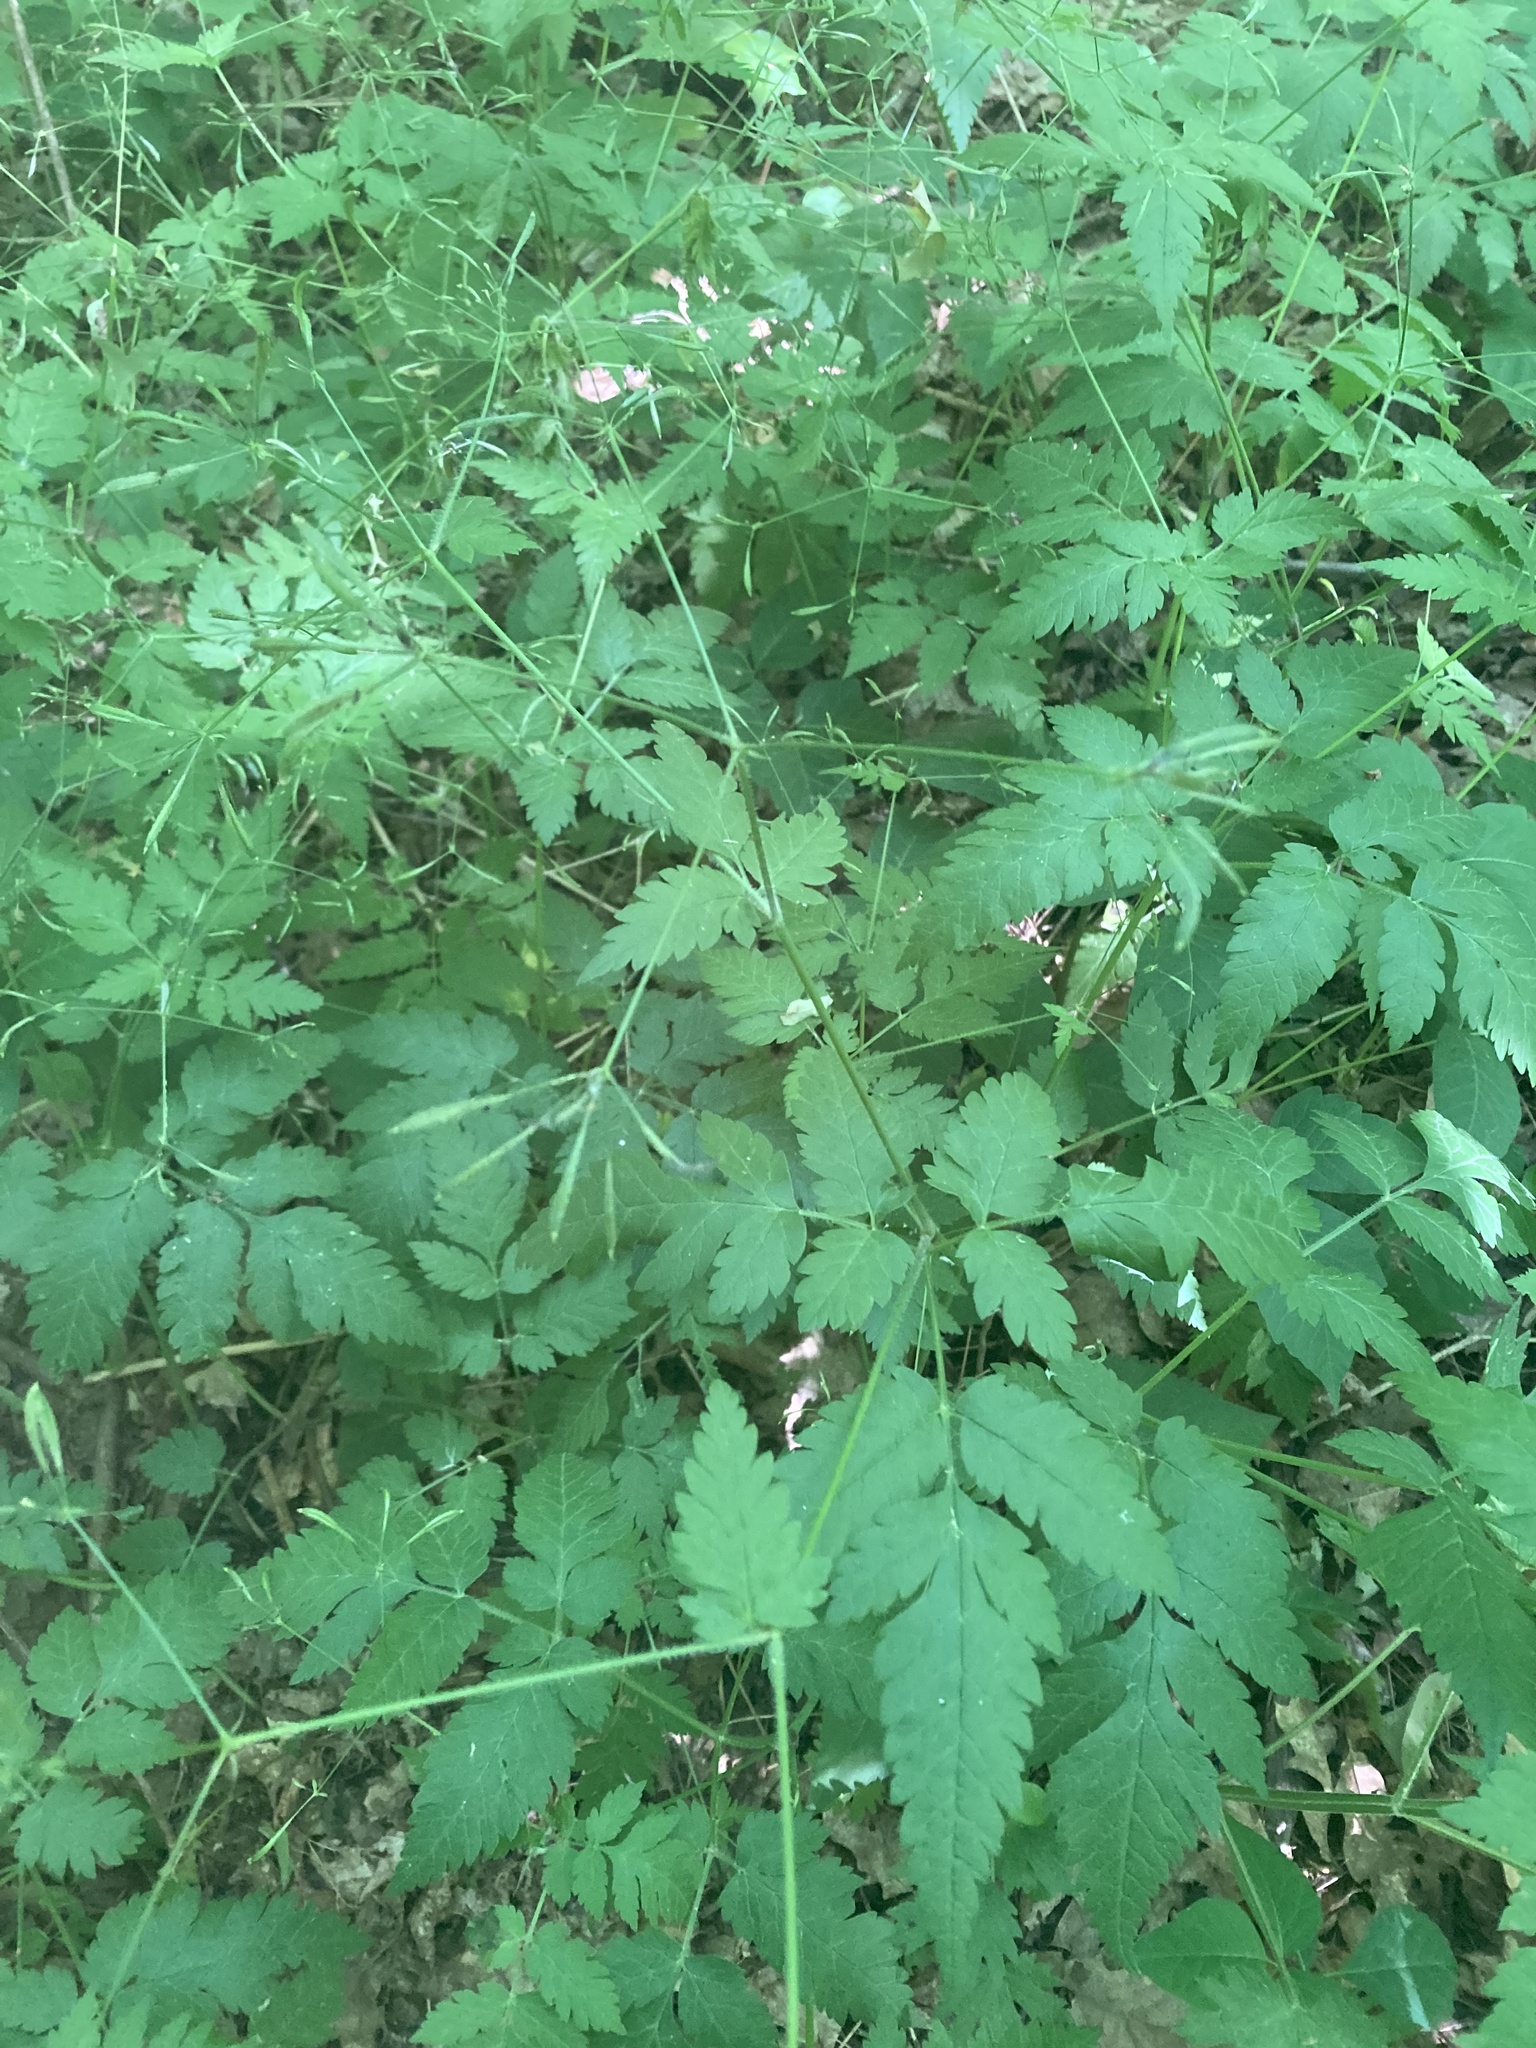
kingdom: Plantae
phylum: Tracheophyta
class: Magnoliopsida
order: Apiales
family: Apiaceae
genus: Osmorhiza
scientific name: Osmorhiza claytonii
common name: Hairy sweet cicely
